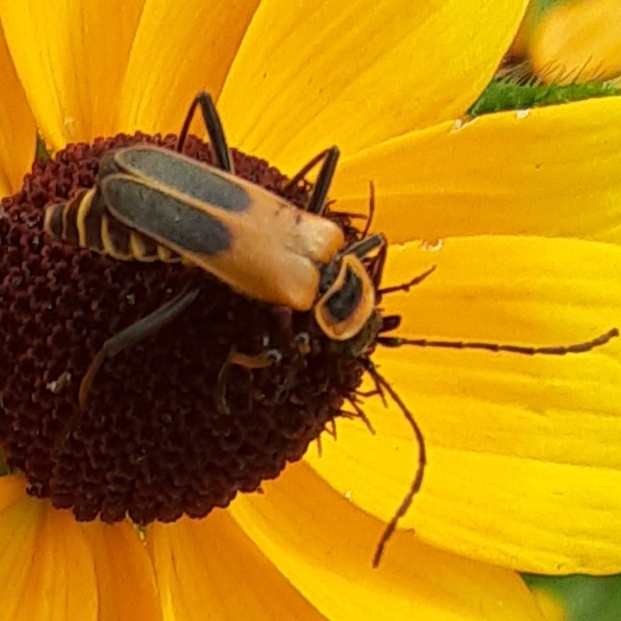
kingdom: Animalia
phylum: Arthropoda
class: Insecta
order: Coleoptera
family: Cantharidae
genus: Chauliognathus
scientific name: Chauliognathus pensylvanicus
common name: Goldenrod soldier beetle
